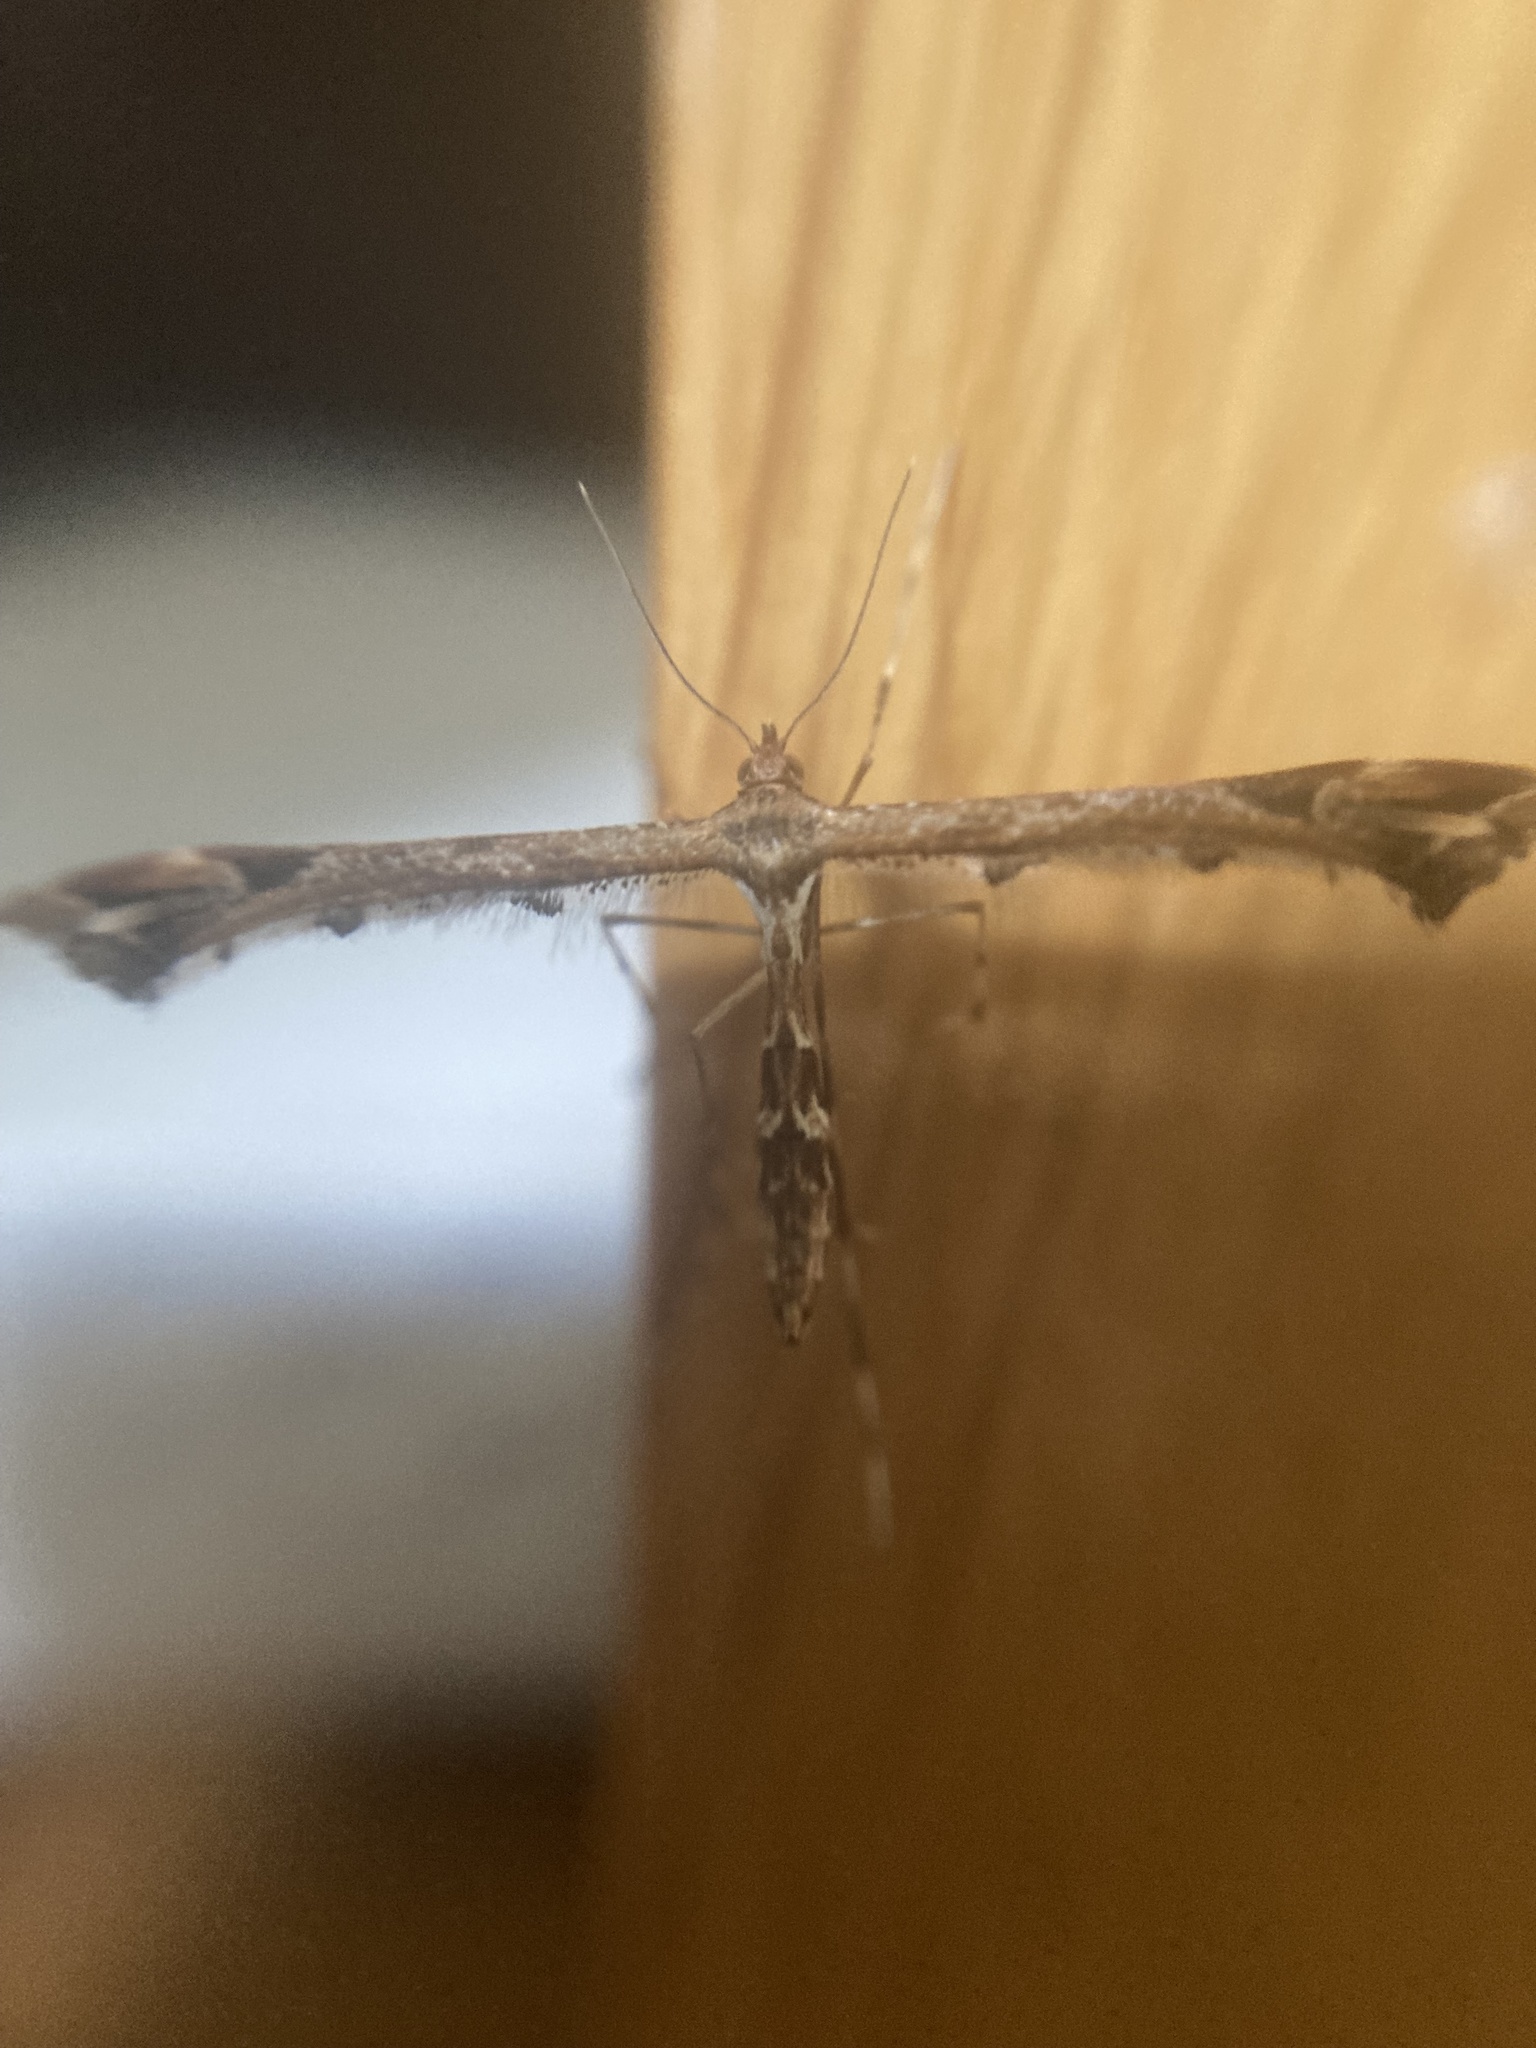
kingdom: Animalia
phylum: Arthropoda
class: Insecta
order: Lepidoptera
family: Pterophoridae
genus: Amblyptilia
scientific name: Amblyptilia acanthadactyla
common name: Beautiful plume
